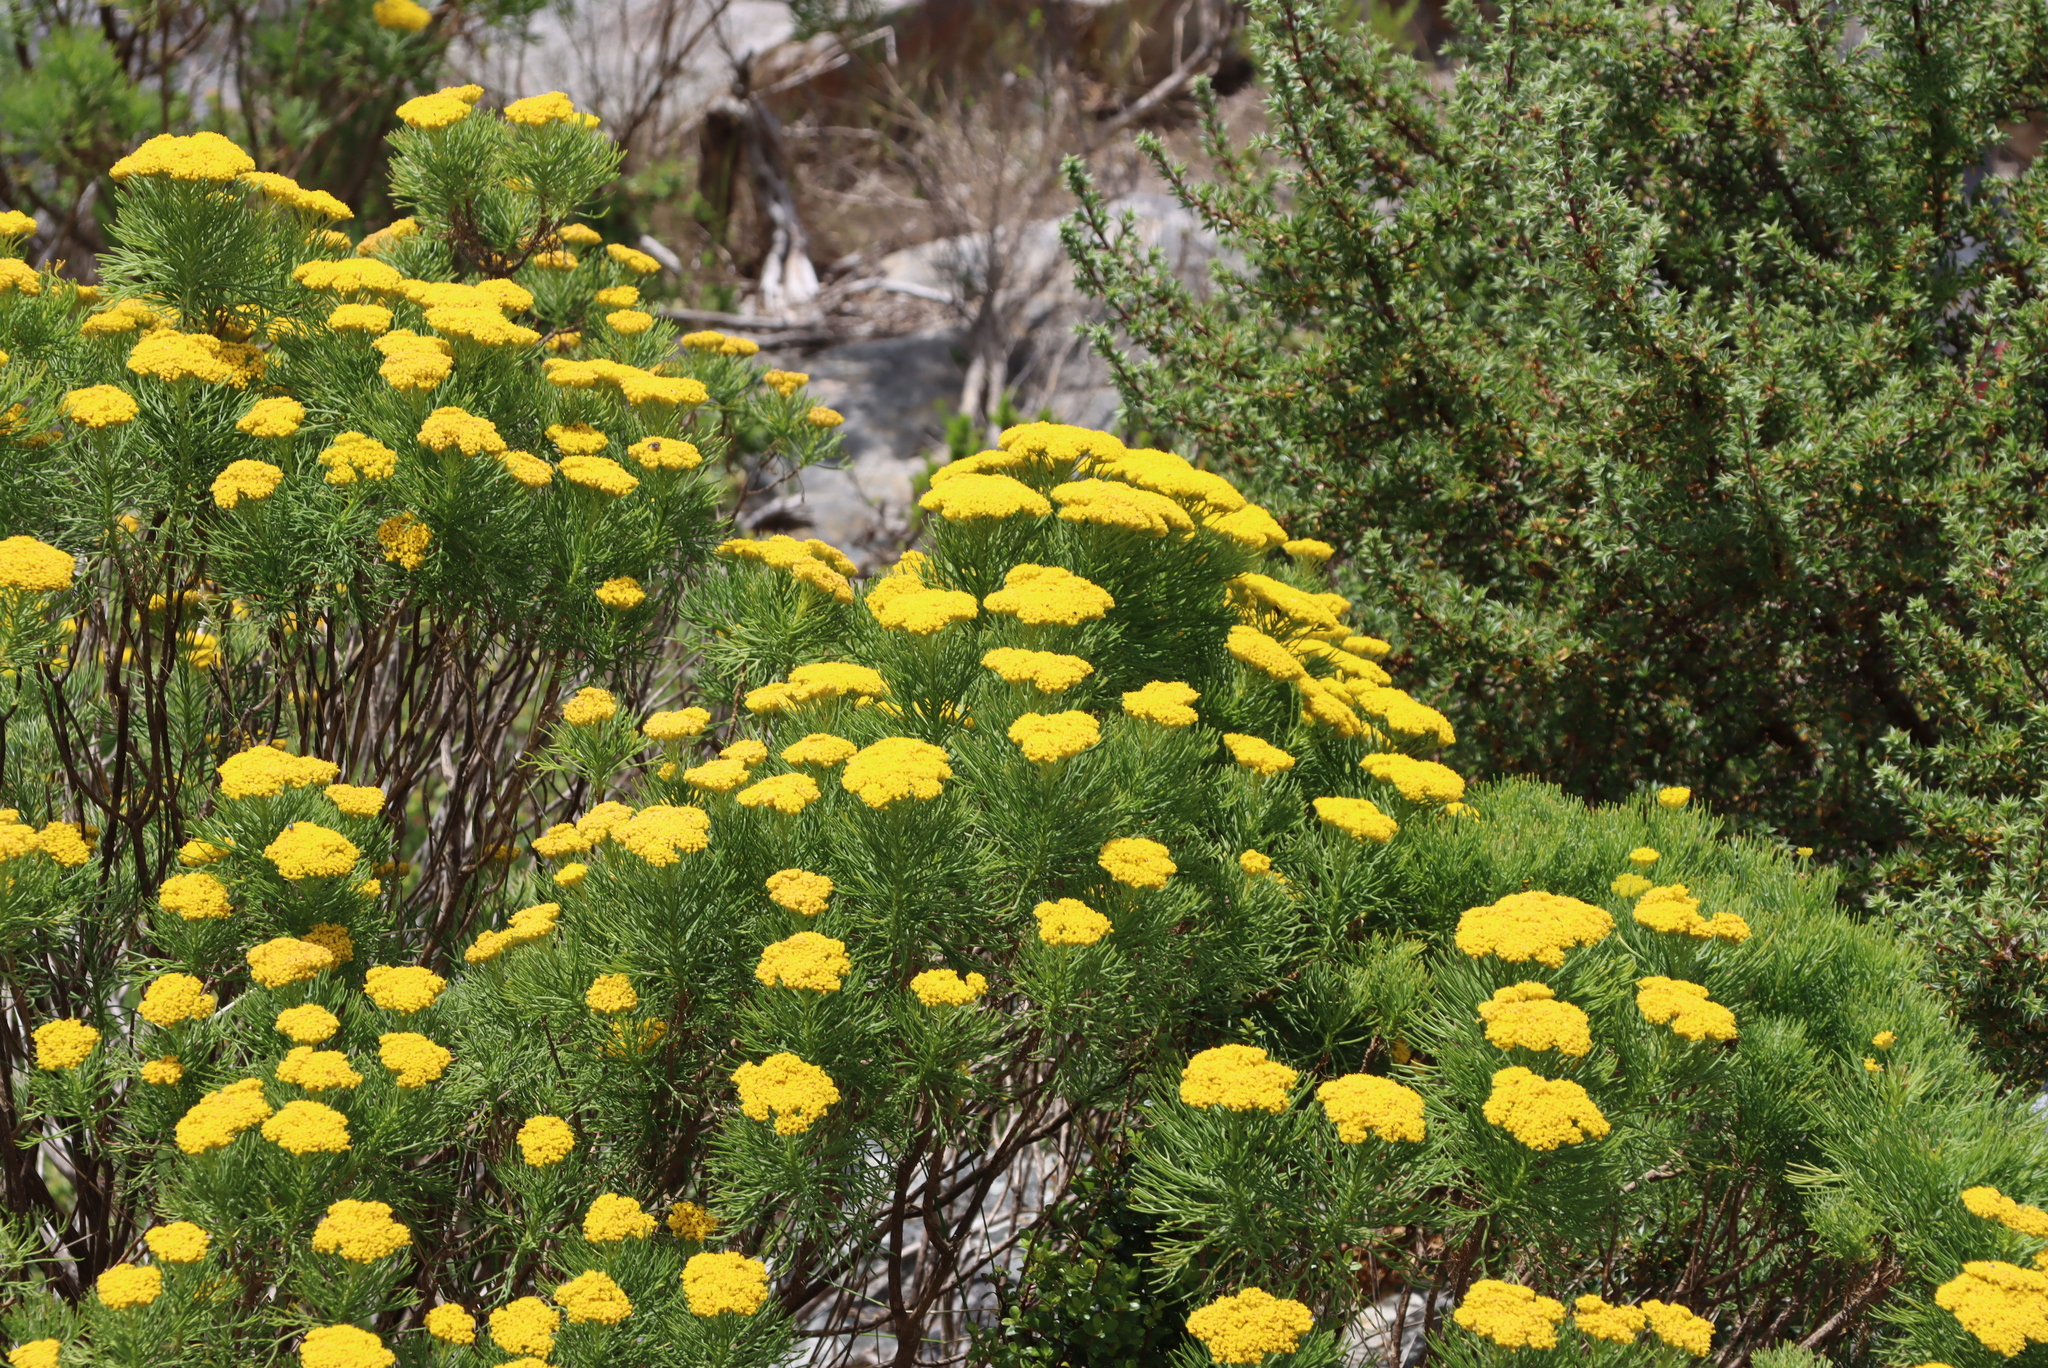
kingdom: Plantae
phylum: Tracheophyta
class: Magnoliopsida
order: Asterales
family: Asteraceae
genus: Athanasia
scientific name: Athanasia crithmifolia
